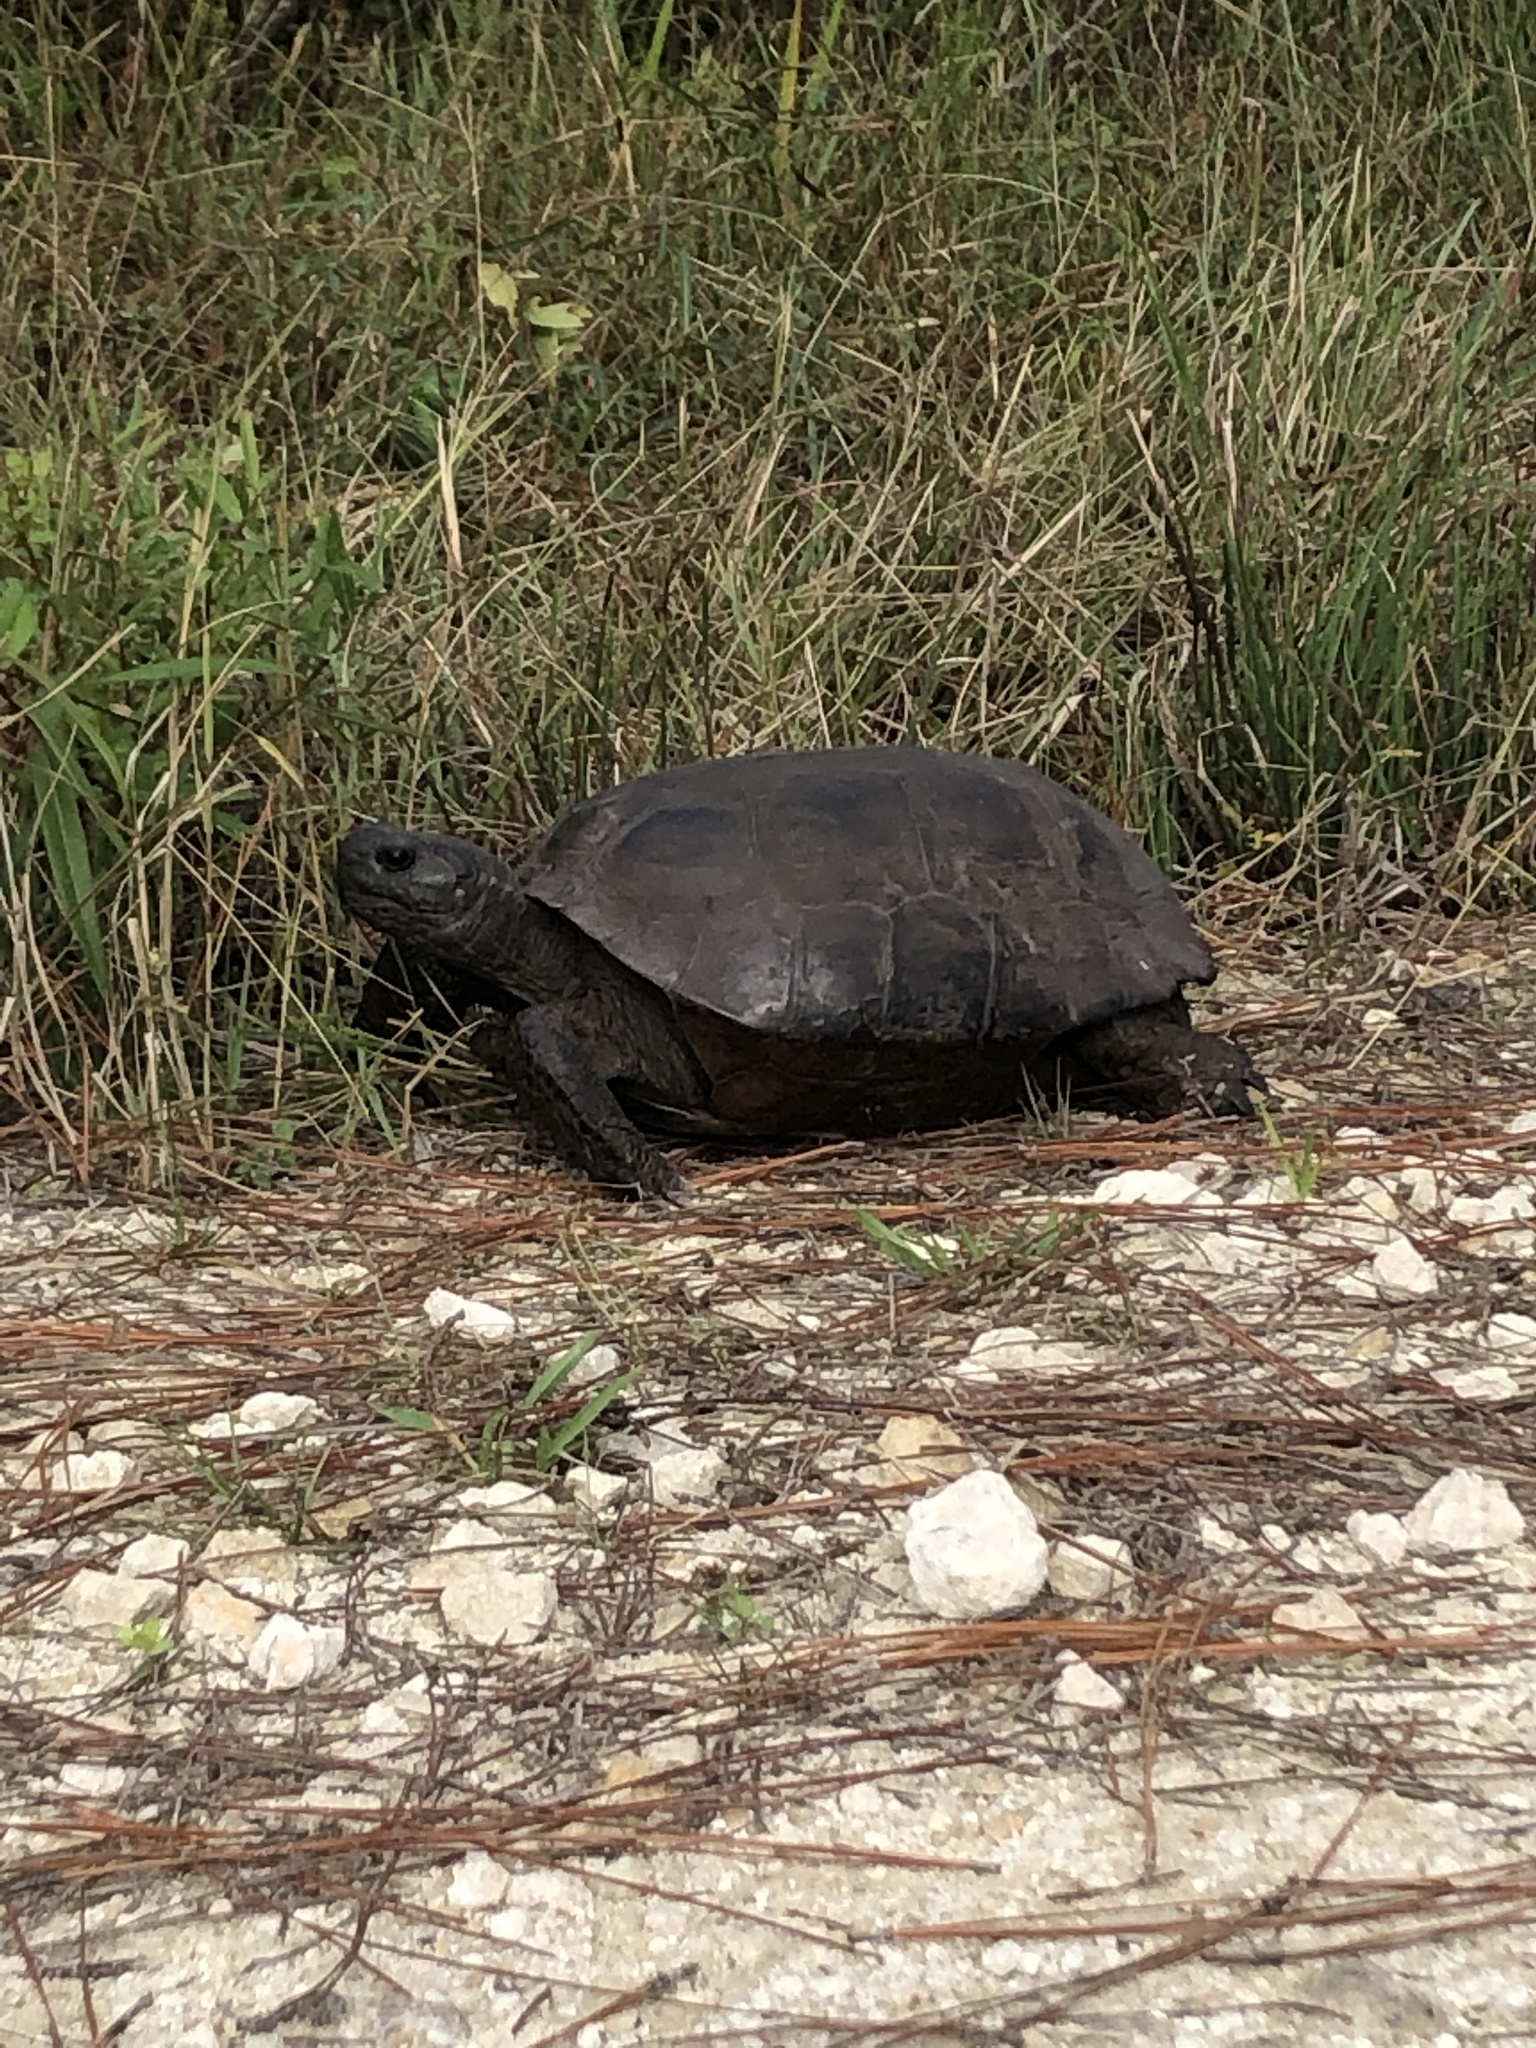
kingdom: Animalia
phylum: Chordata
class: Testudines
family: Testudinidae
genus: Gopherus
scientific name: Gopherus polyphemus
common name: Florida gopher tortoise
